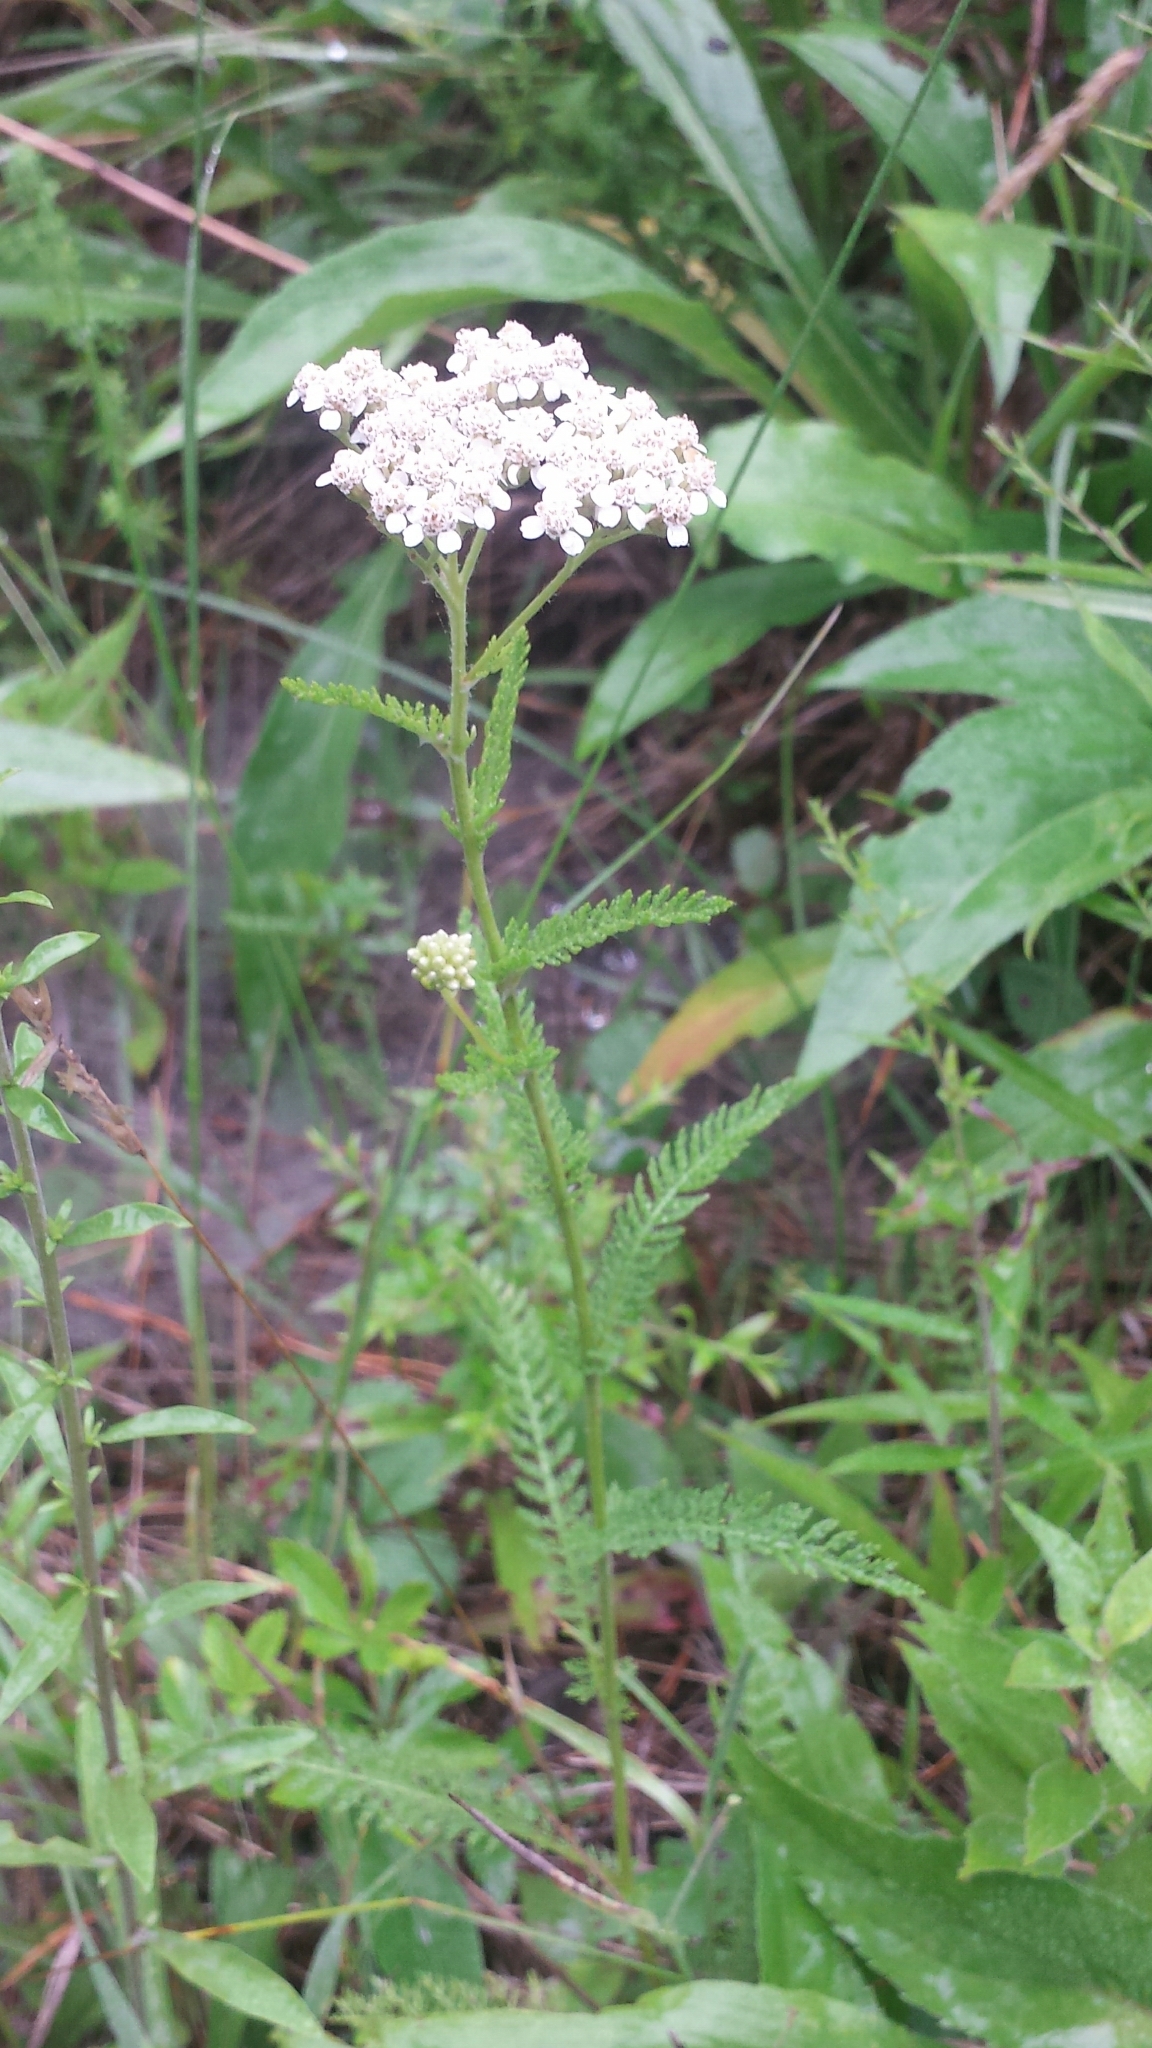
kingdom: Plantae
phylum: Tracheophyta
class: Magnoliopsida
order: Asterales
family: Asteraceae
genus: Achillea
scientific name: Achillea millefolium
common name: Yarrow
